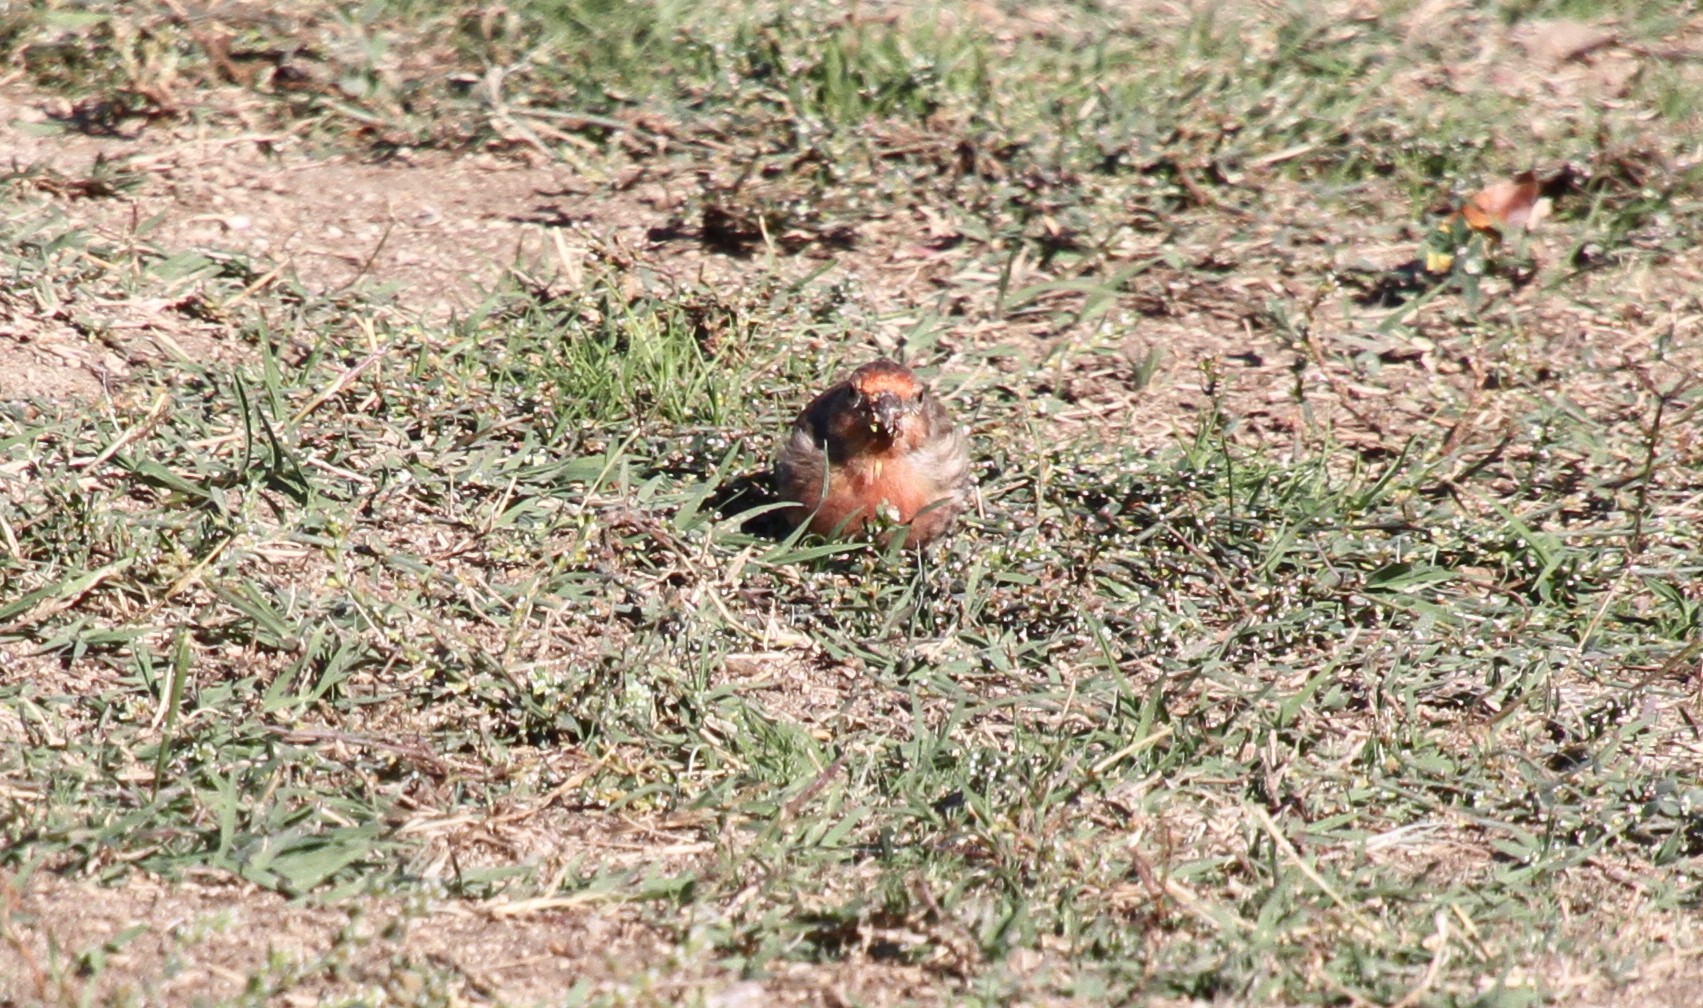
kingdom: Animalia
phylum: Chordata
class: Aves
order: Passeriformes
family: Fringillidae
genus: Haemorhous
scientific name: Haemorhous mexicanus
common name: House finch
